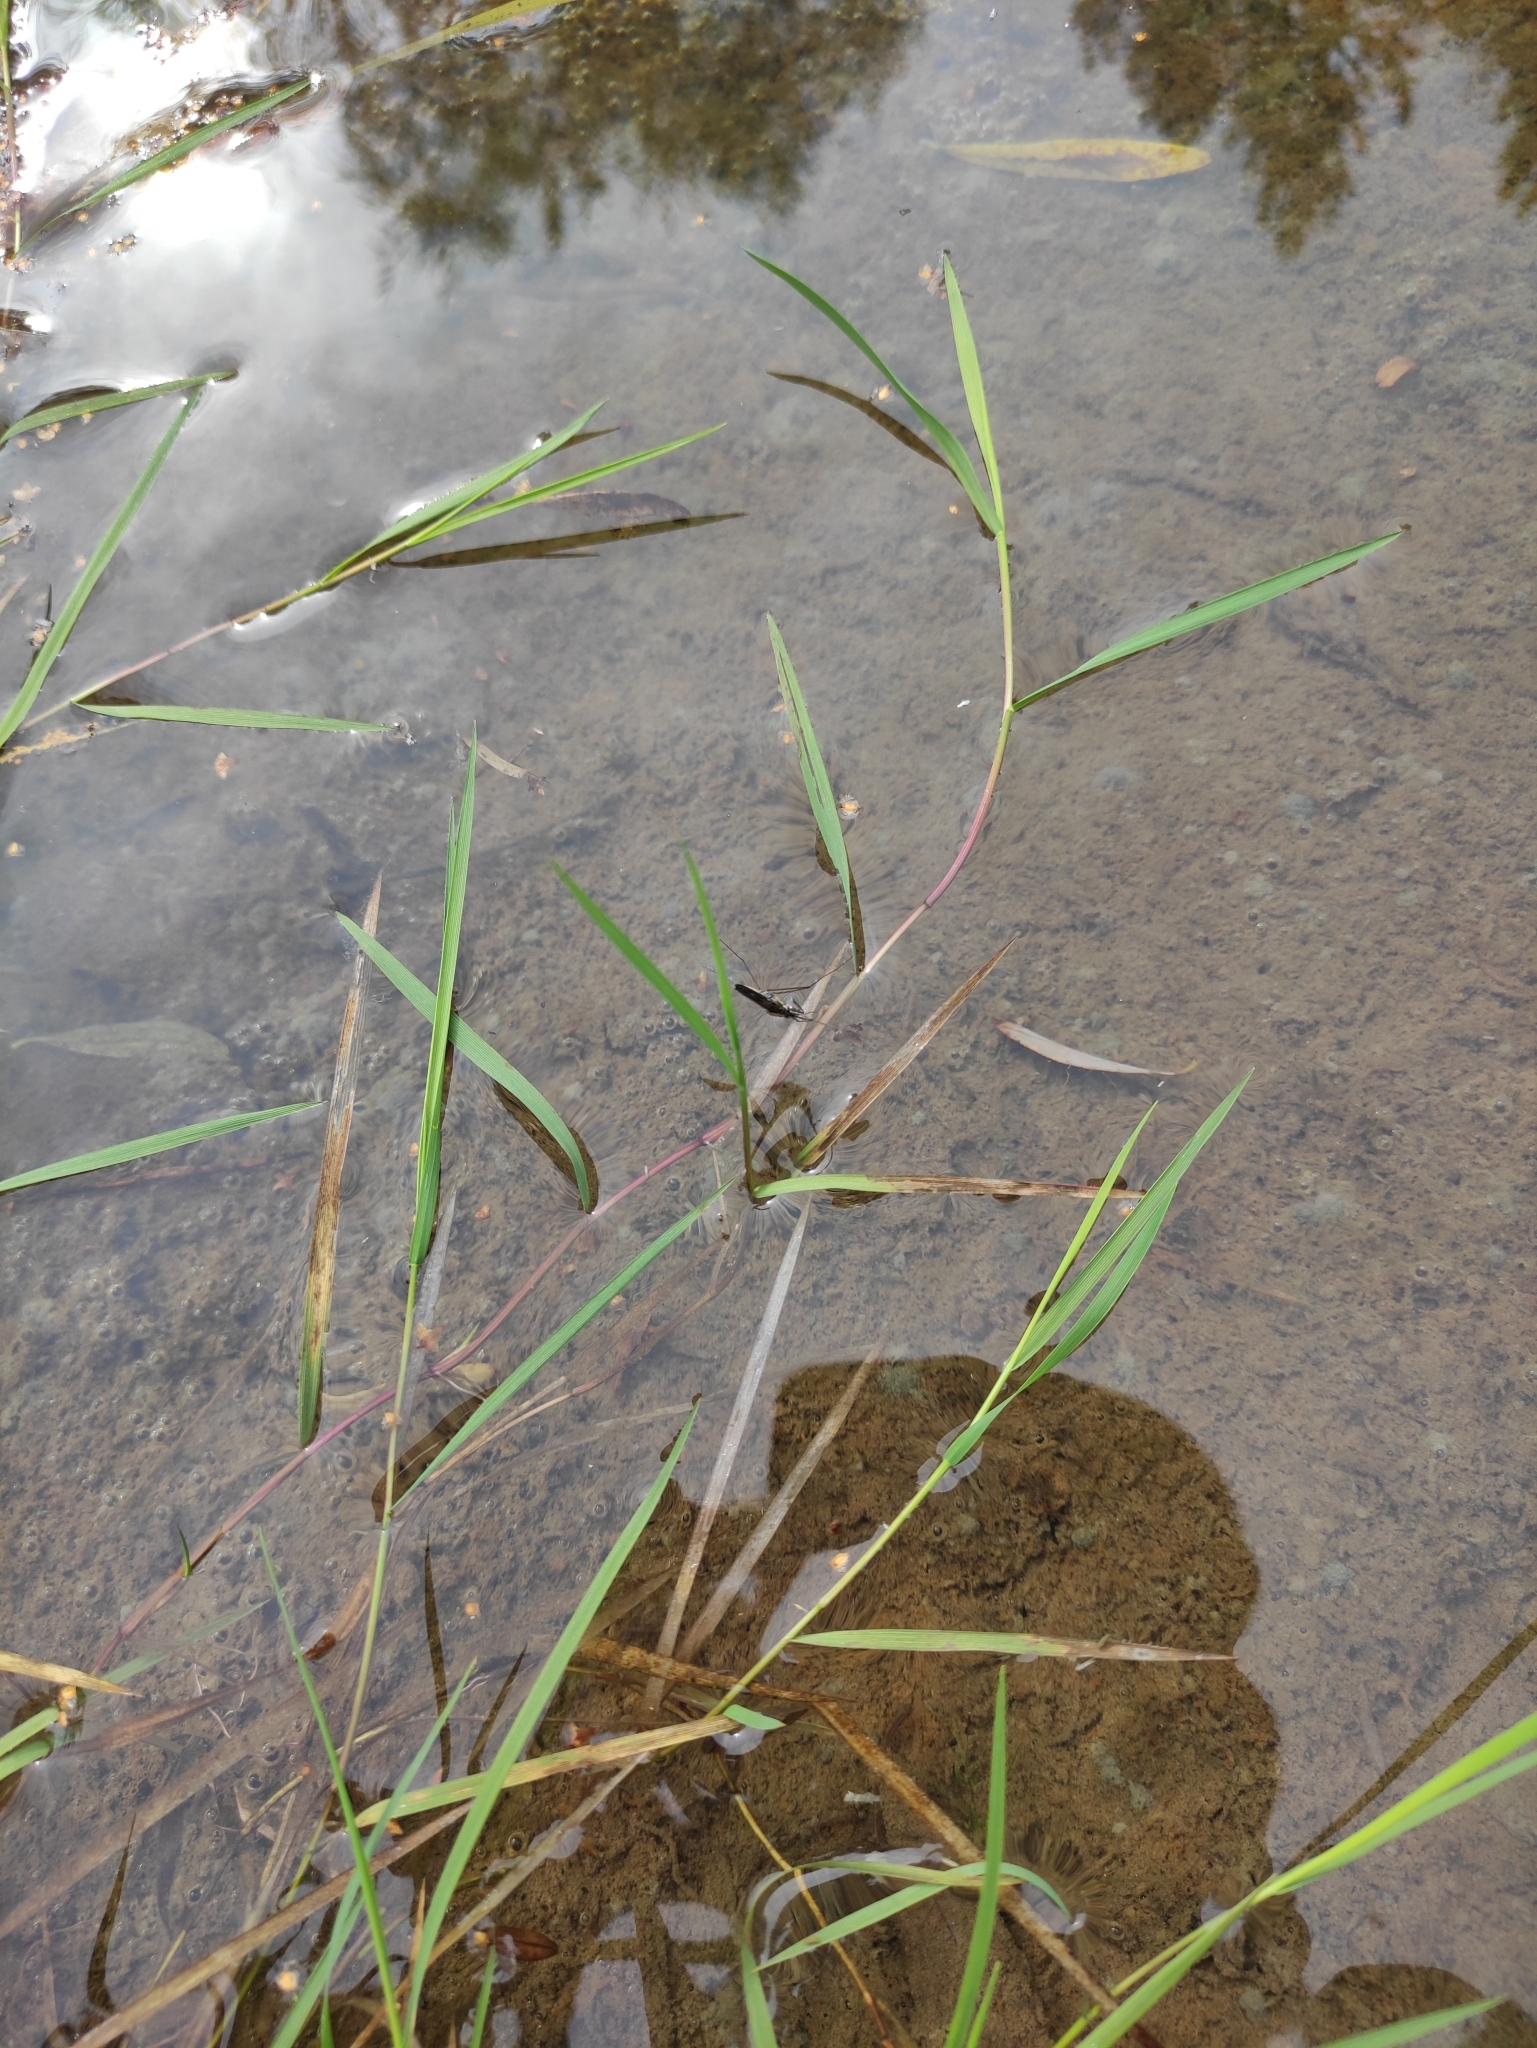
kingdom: Plantae
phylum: Tracheophyta
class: Liliopsida
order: Poales
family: Poaceae
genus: Agrostis
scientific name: Agrostis stolonifera
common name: Creeping bentgrass
